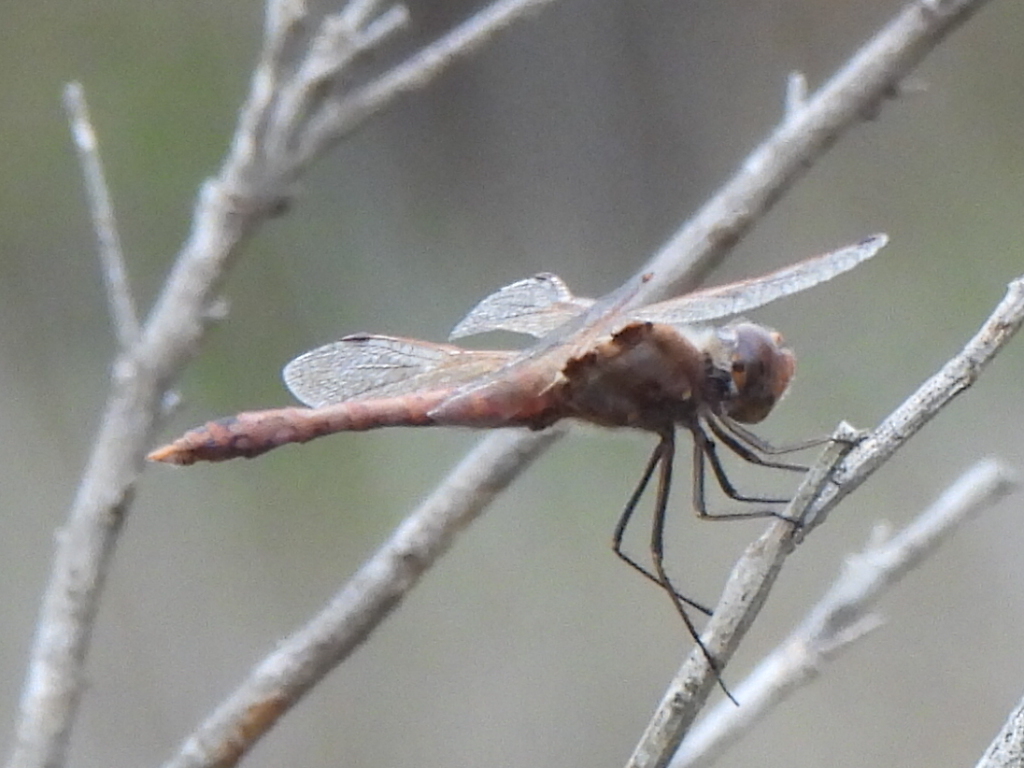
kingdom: Animalia
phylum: Arthropoda
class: Insecta
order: Odonata
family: Libellulidae
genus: Sympetrum
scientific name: Sympetrum corruptum
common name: Variegated meadowhawk
